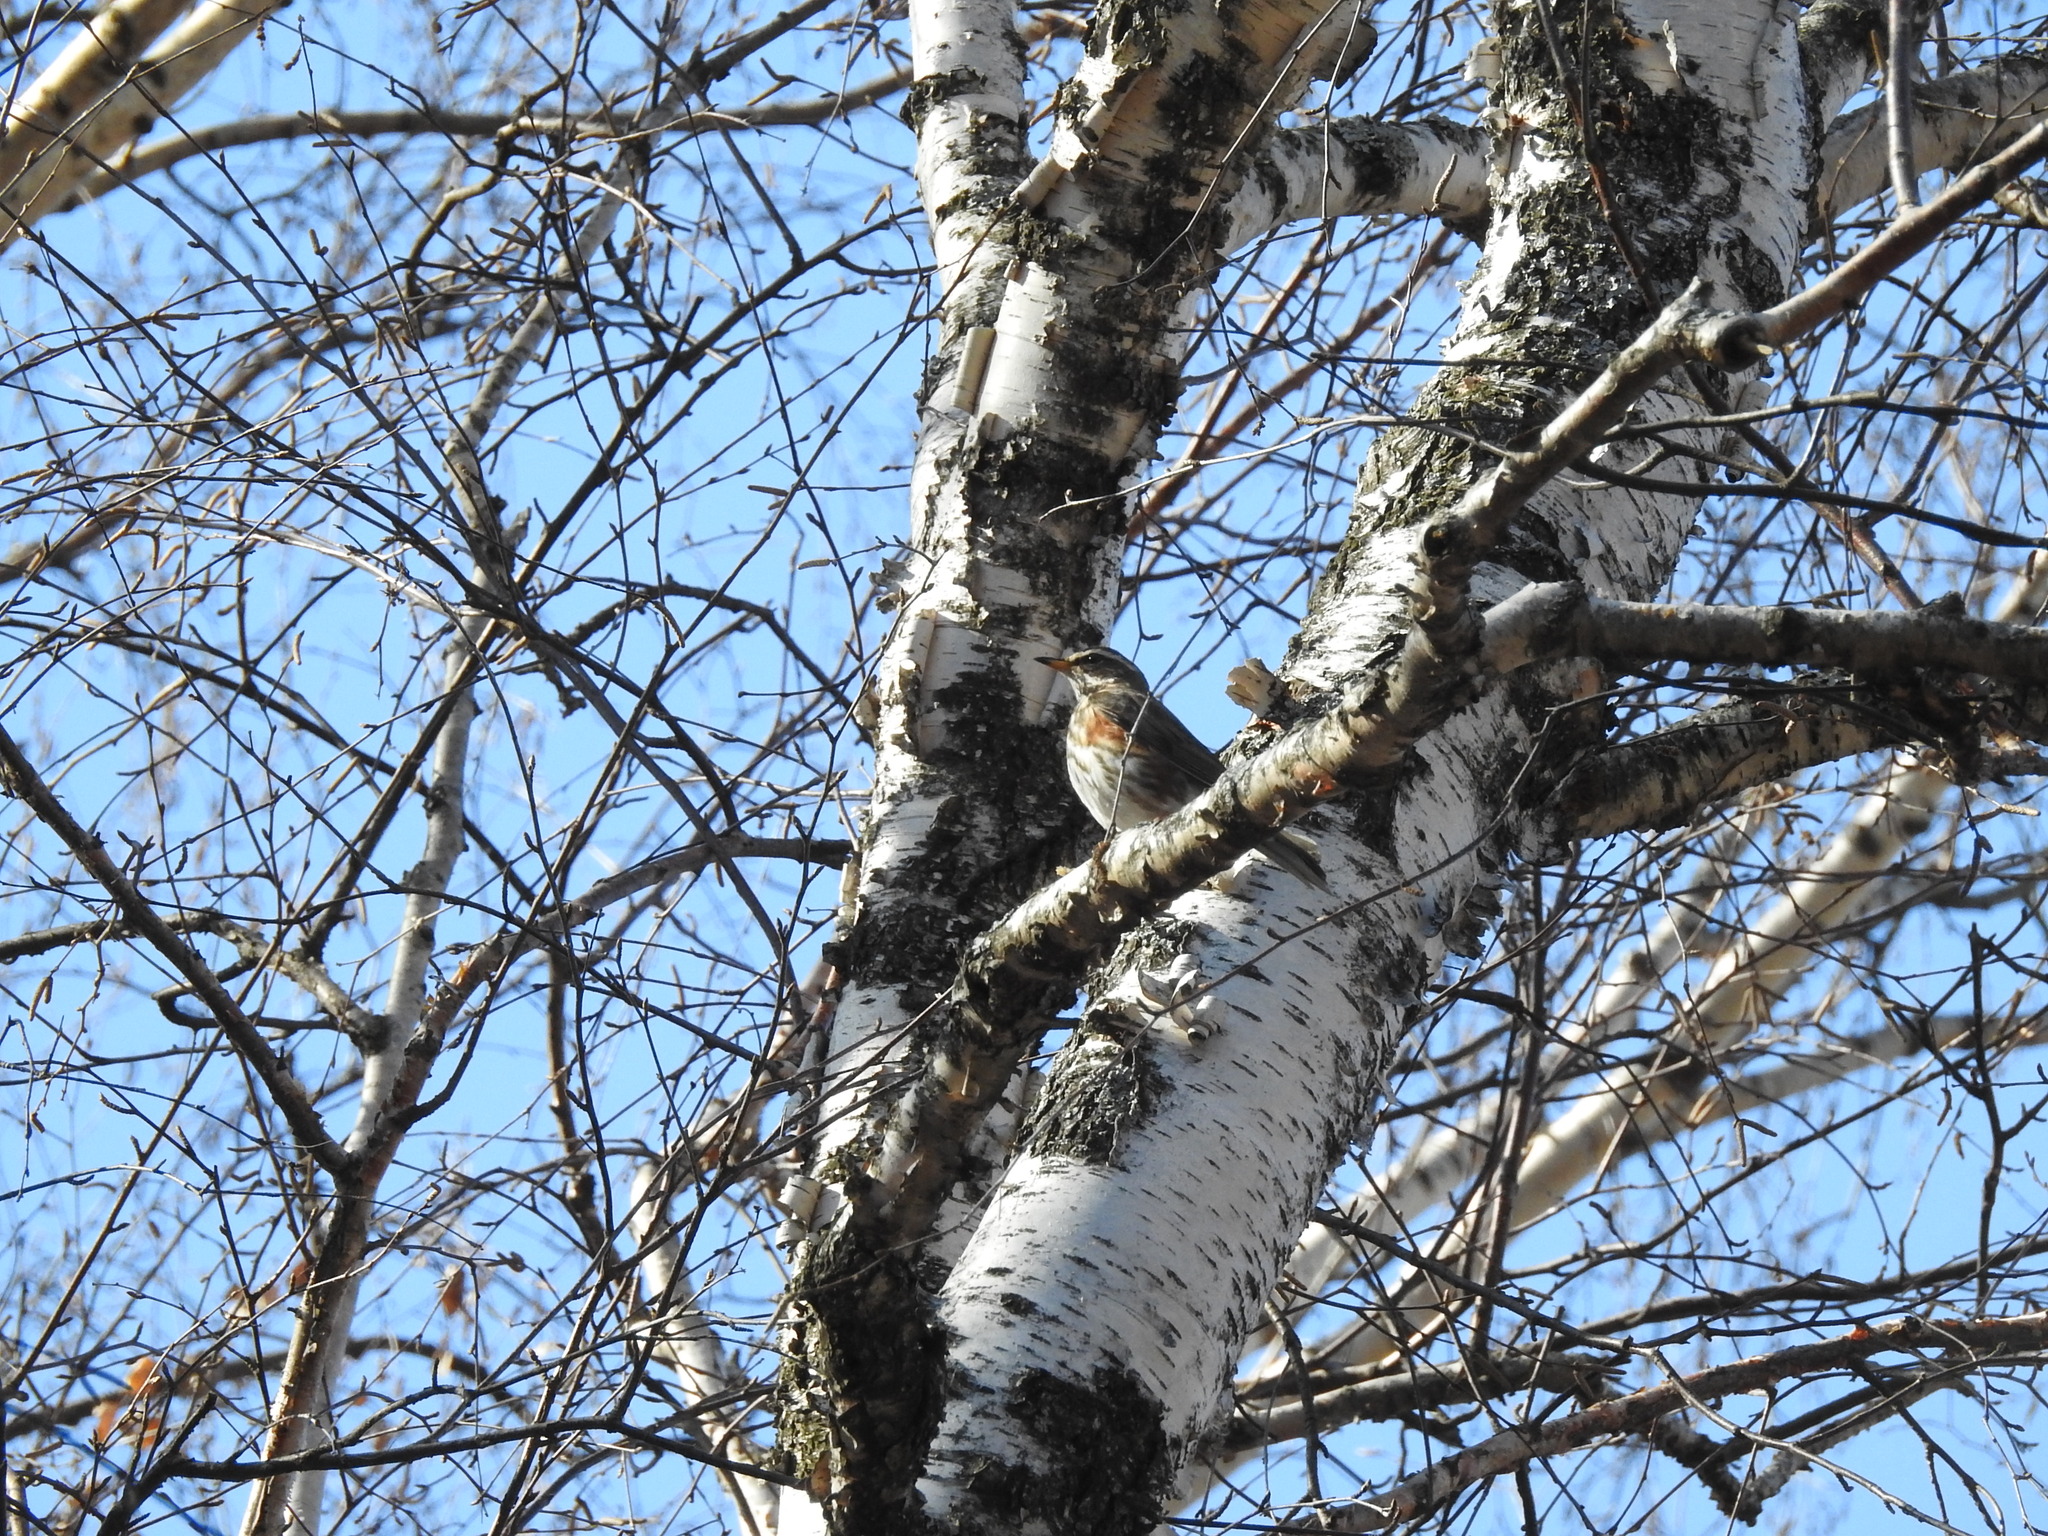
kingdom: Animalia
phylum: Chordata
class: Aves
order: Passeriformes
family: Turdidae
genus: Turdus
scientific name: Turdus iliacus
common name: Redwing
